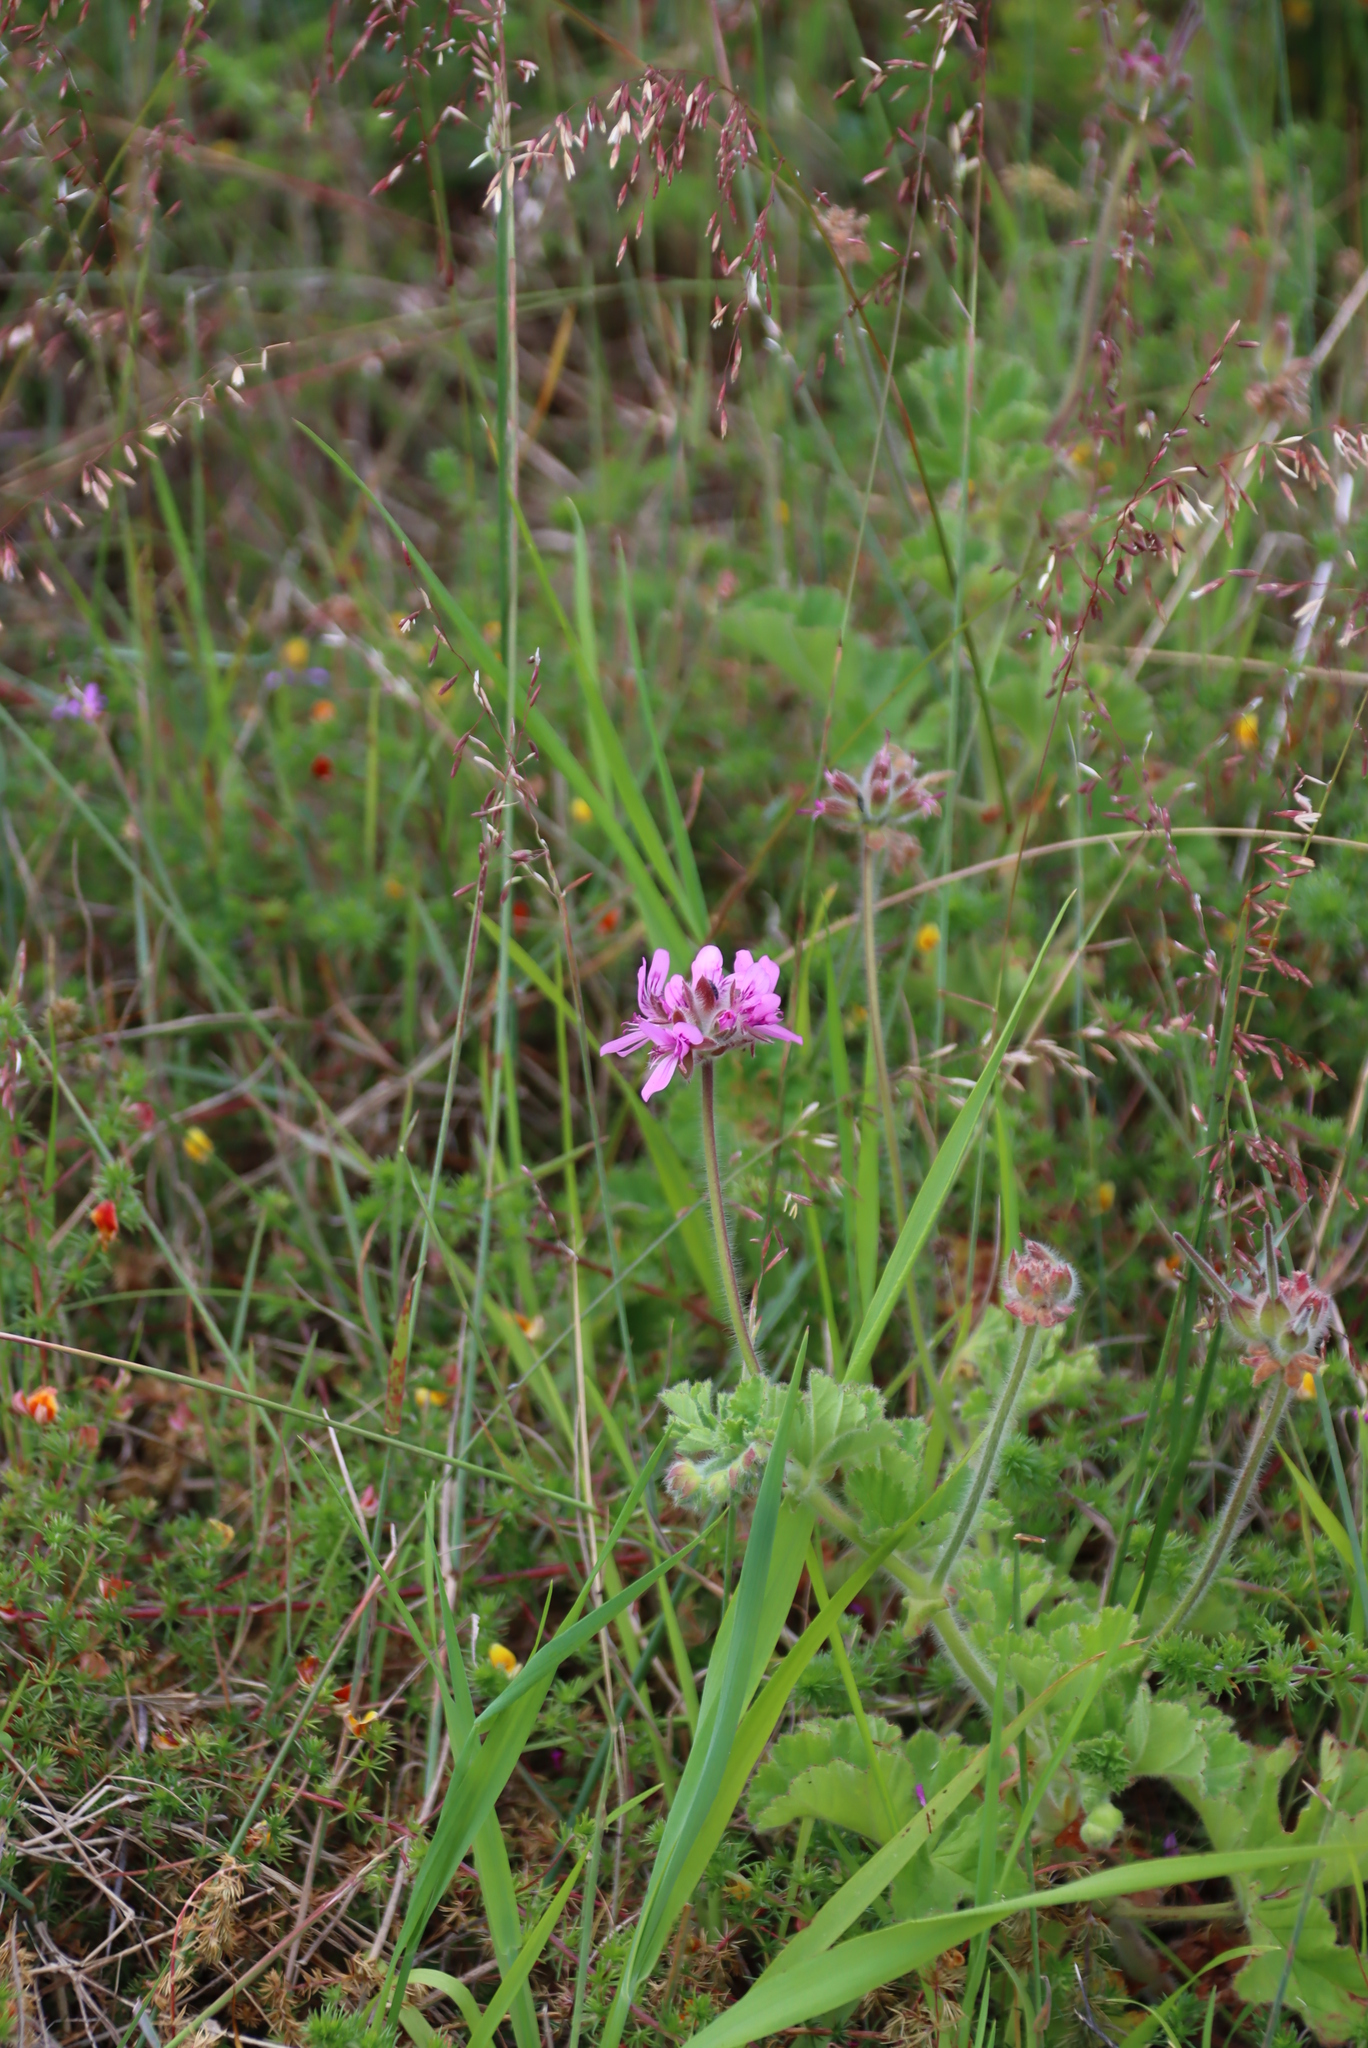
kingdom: Plantae
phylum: Tracheophyta
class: Magnoliopsida
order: Geraniales
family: Geraniaceae
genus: Pelargonium
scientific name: Pelargonium capitatum
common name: Rose scented geranium
